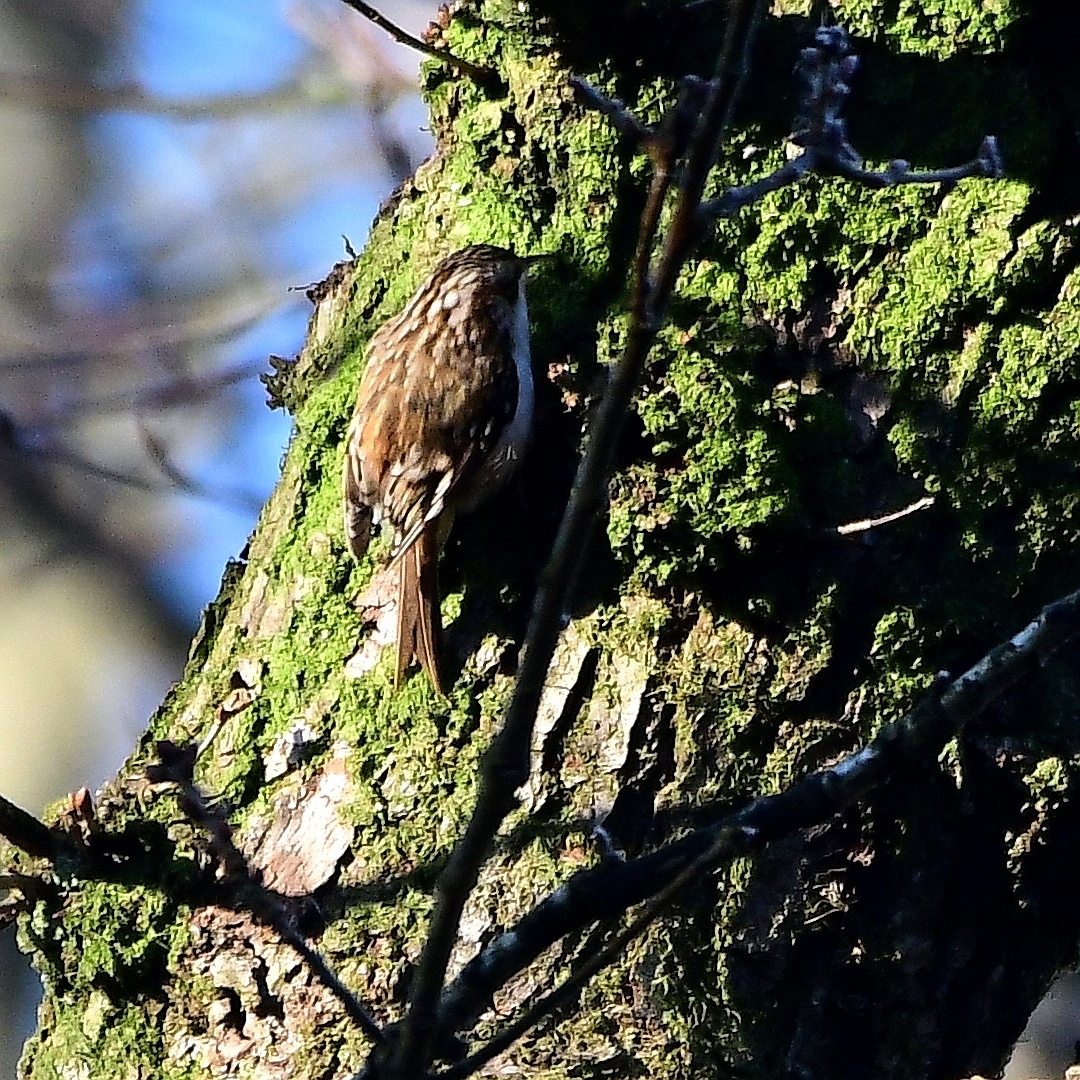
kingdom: Animalia
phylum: Chordata
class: Aves
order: Passeriformes
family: Certhiidae
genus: Certhia
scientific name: Certhia familiaris
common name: Eurasian treecreeper
